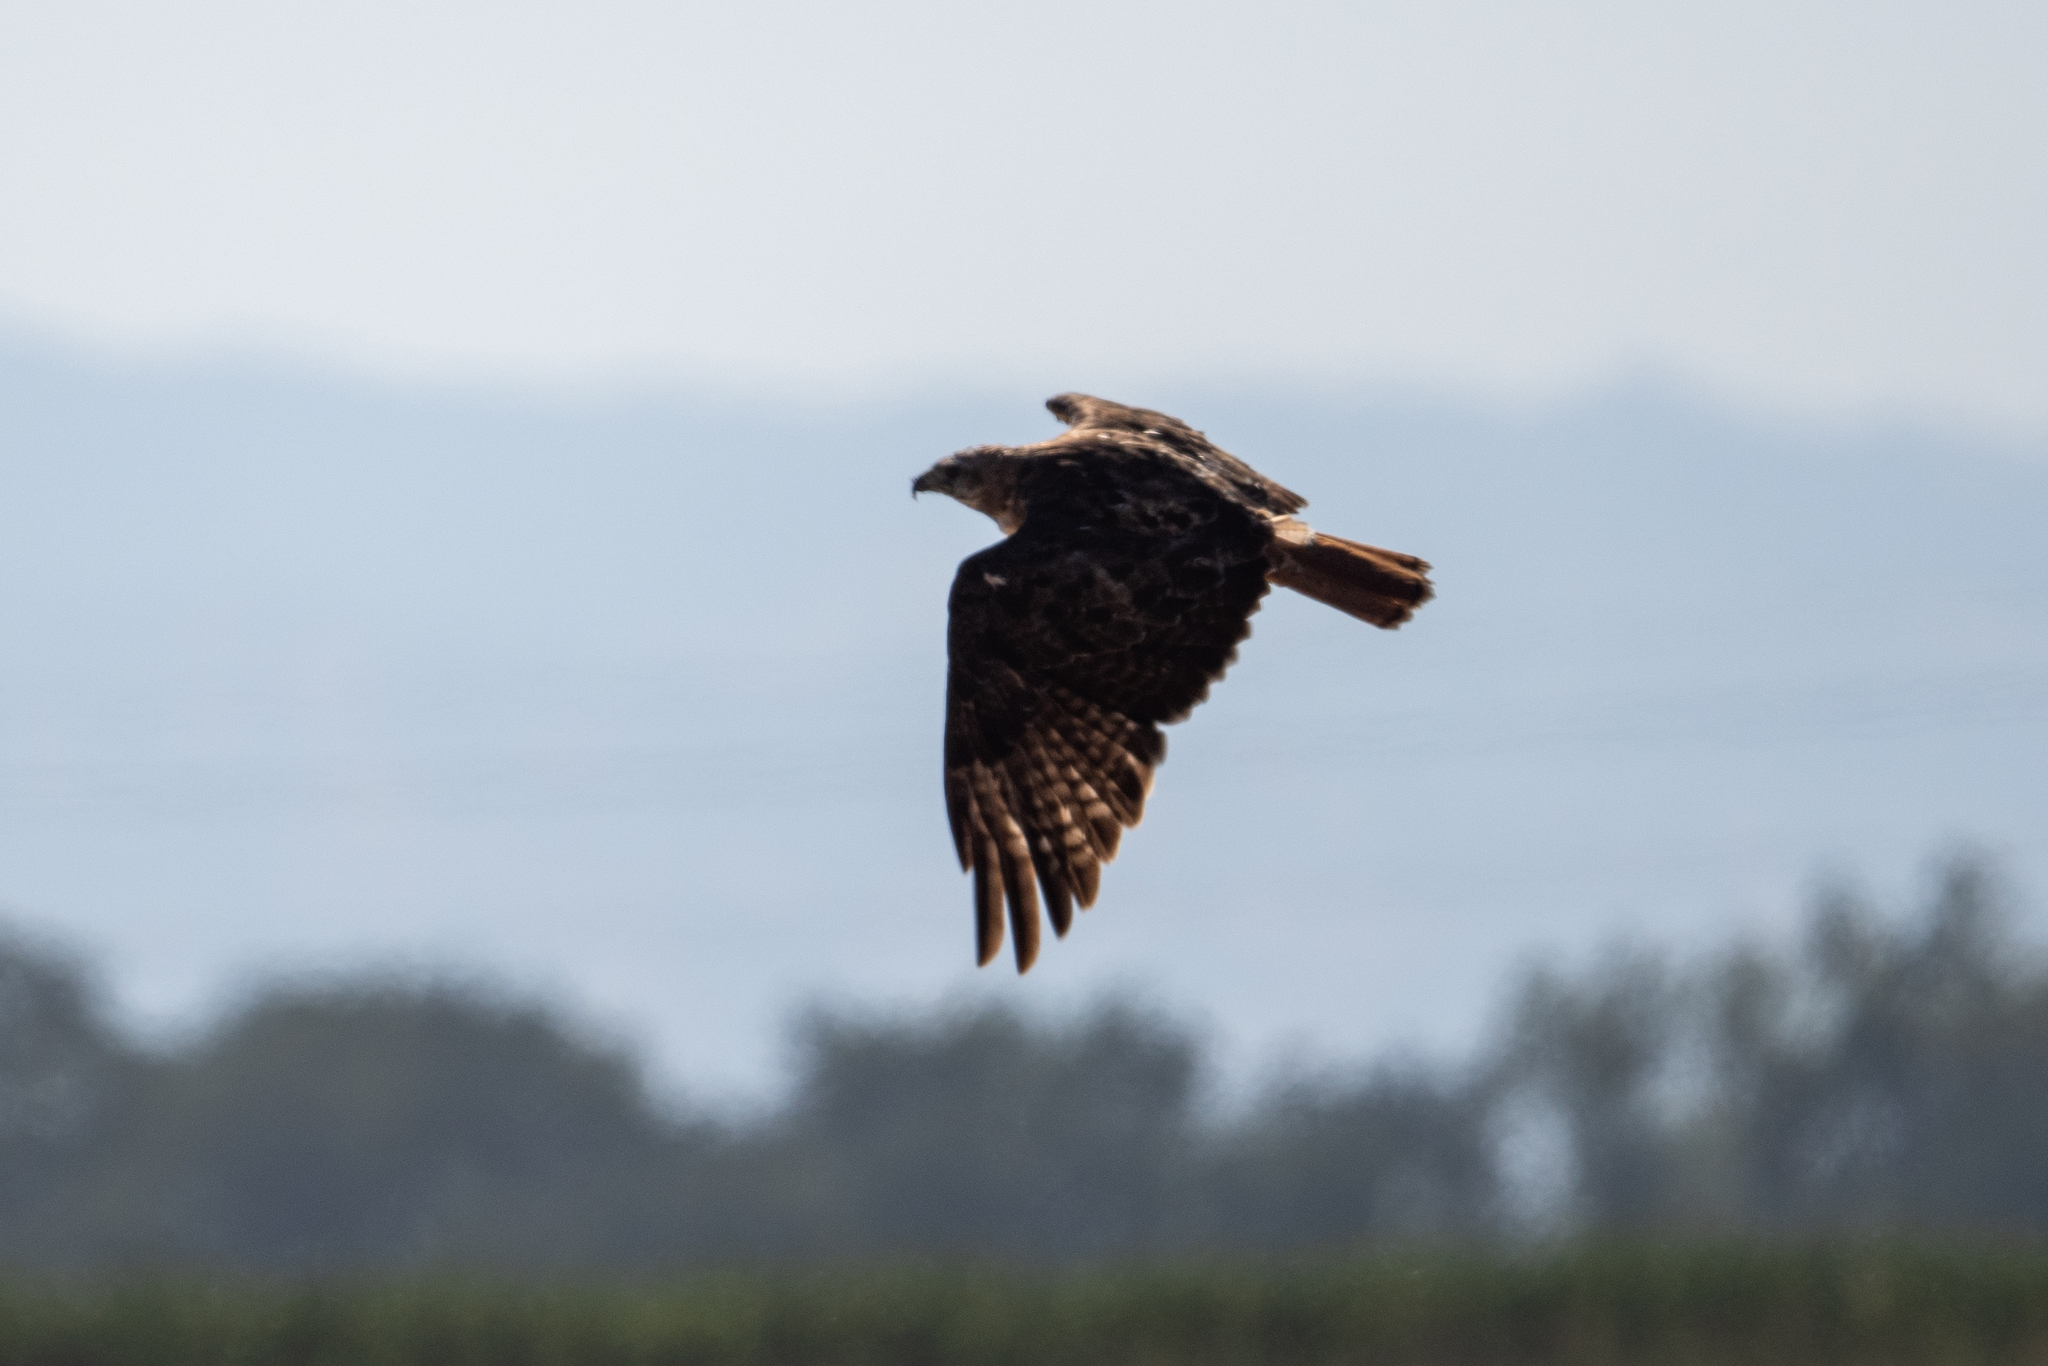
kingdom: Animalia
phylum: Chordata
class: Aves
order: Accipitriformes
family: Accipitridae
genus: Buteo
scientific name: Buteo jamaicensis
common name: Red-tailed hawk
